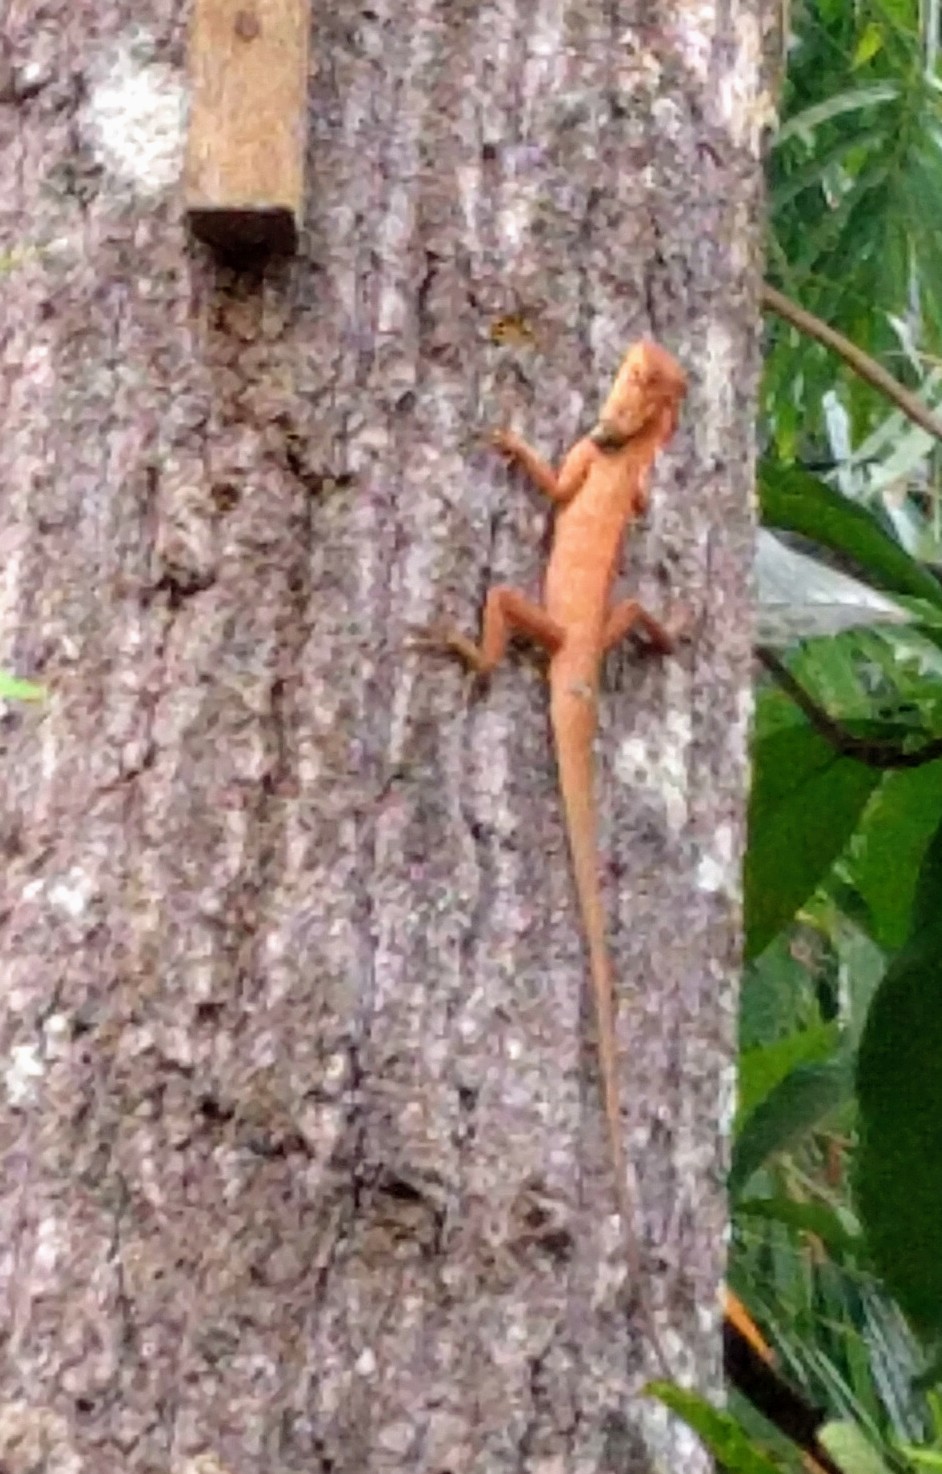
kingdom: Animalia
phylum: Chordata
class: Squamata
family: Agamidae
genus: Calotes
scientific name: Calotes versicolor
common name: Oriental garden lizard
